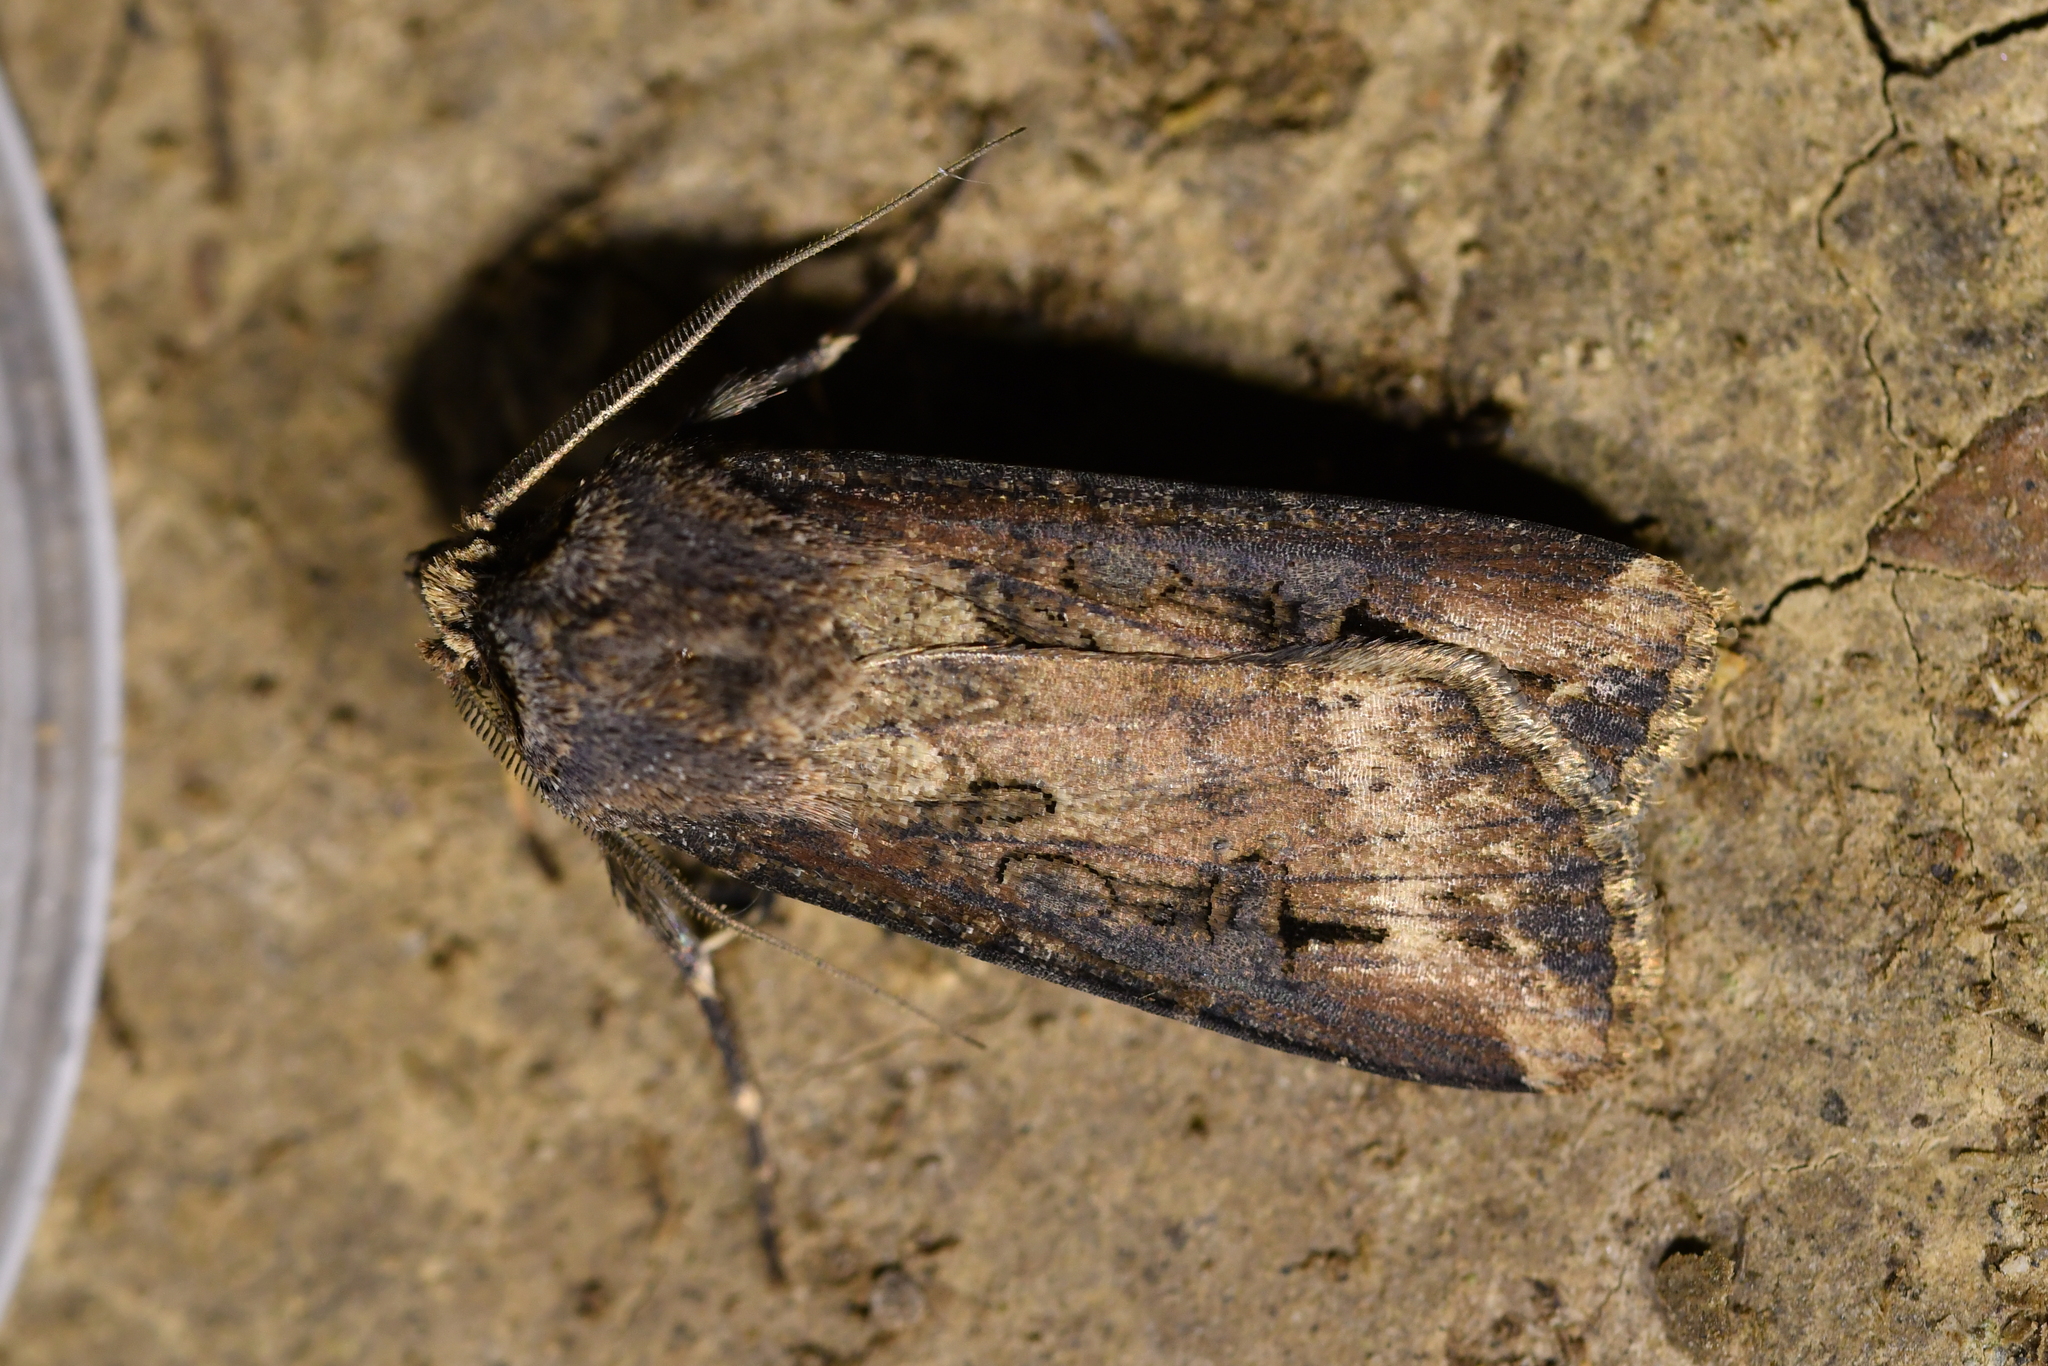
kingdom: Animalia
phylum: Arthropoda
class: Insecta
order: Lepidoptera
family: Noctuidae
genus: Agrotis
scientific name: Agrotis ipsilon
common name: Dark sword-grass
